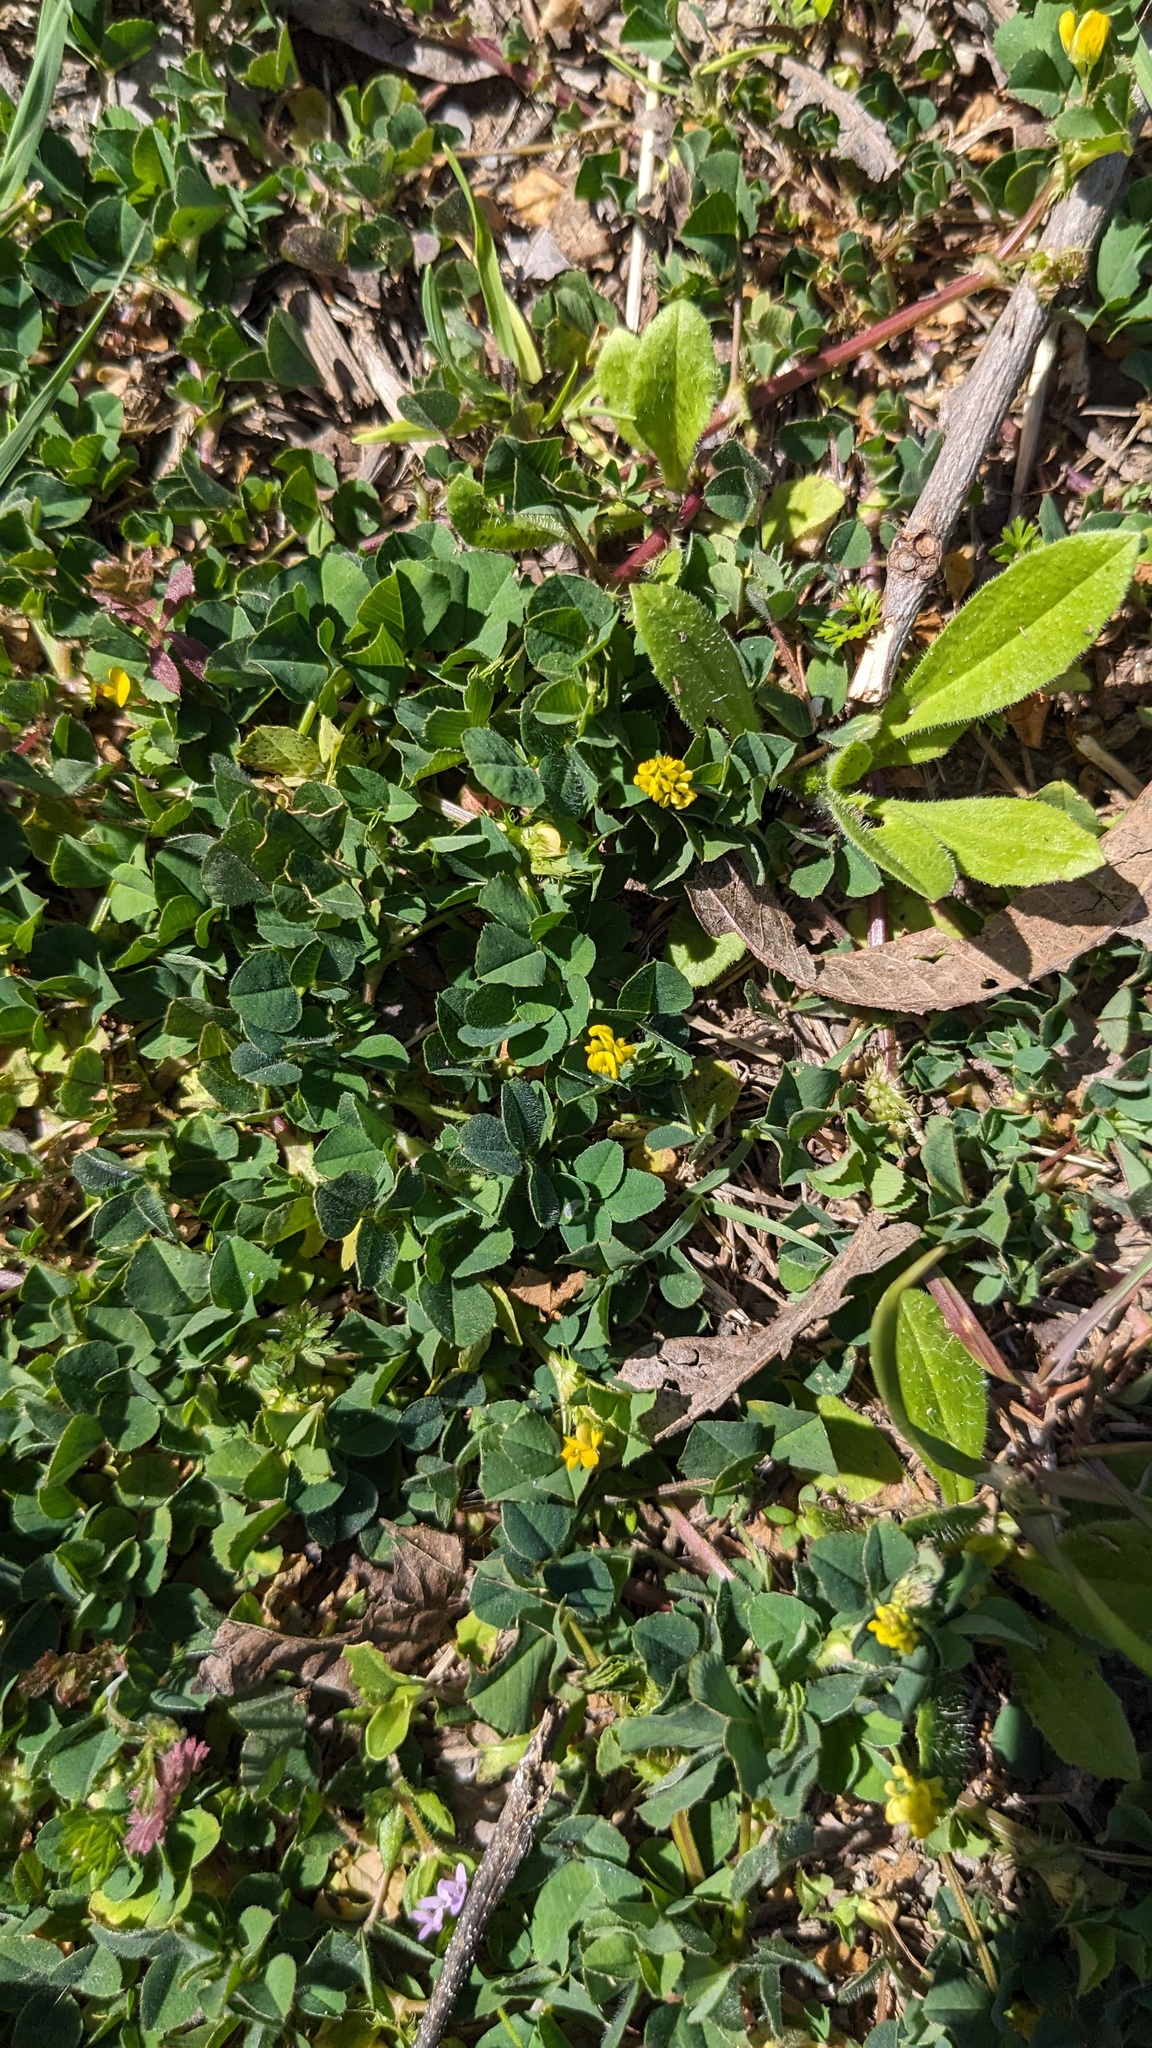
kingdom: Plantae
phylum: Tracheophyta
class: Magnoliopsida
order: Fabales
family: Fabaceae
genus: Medicago
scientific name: Medicago lupulina
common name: Black medick
